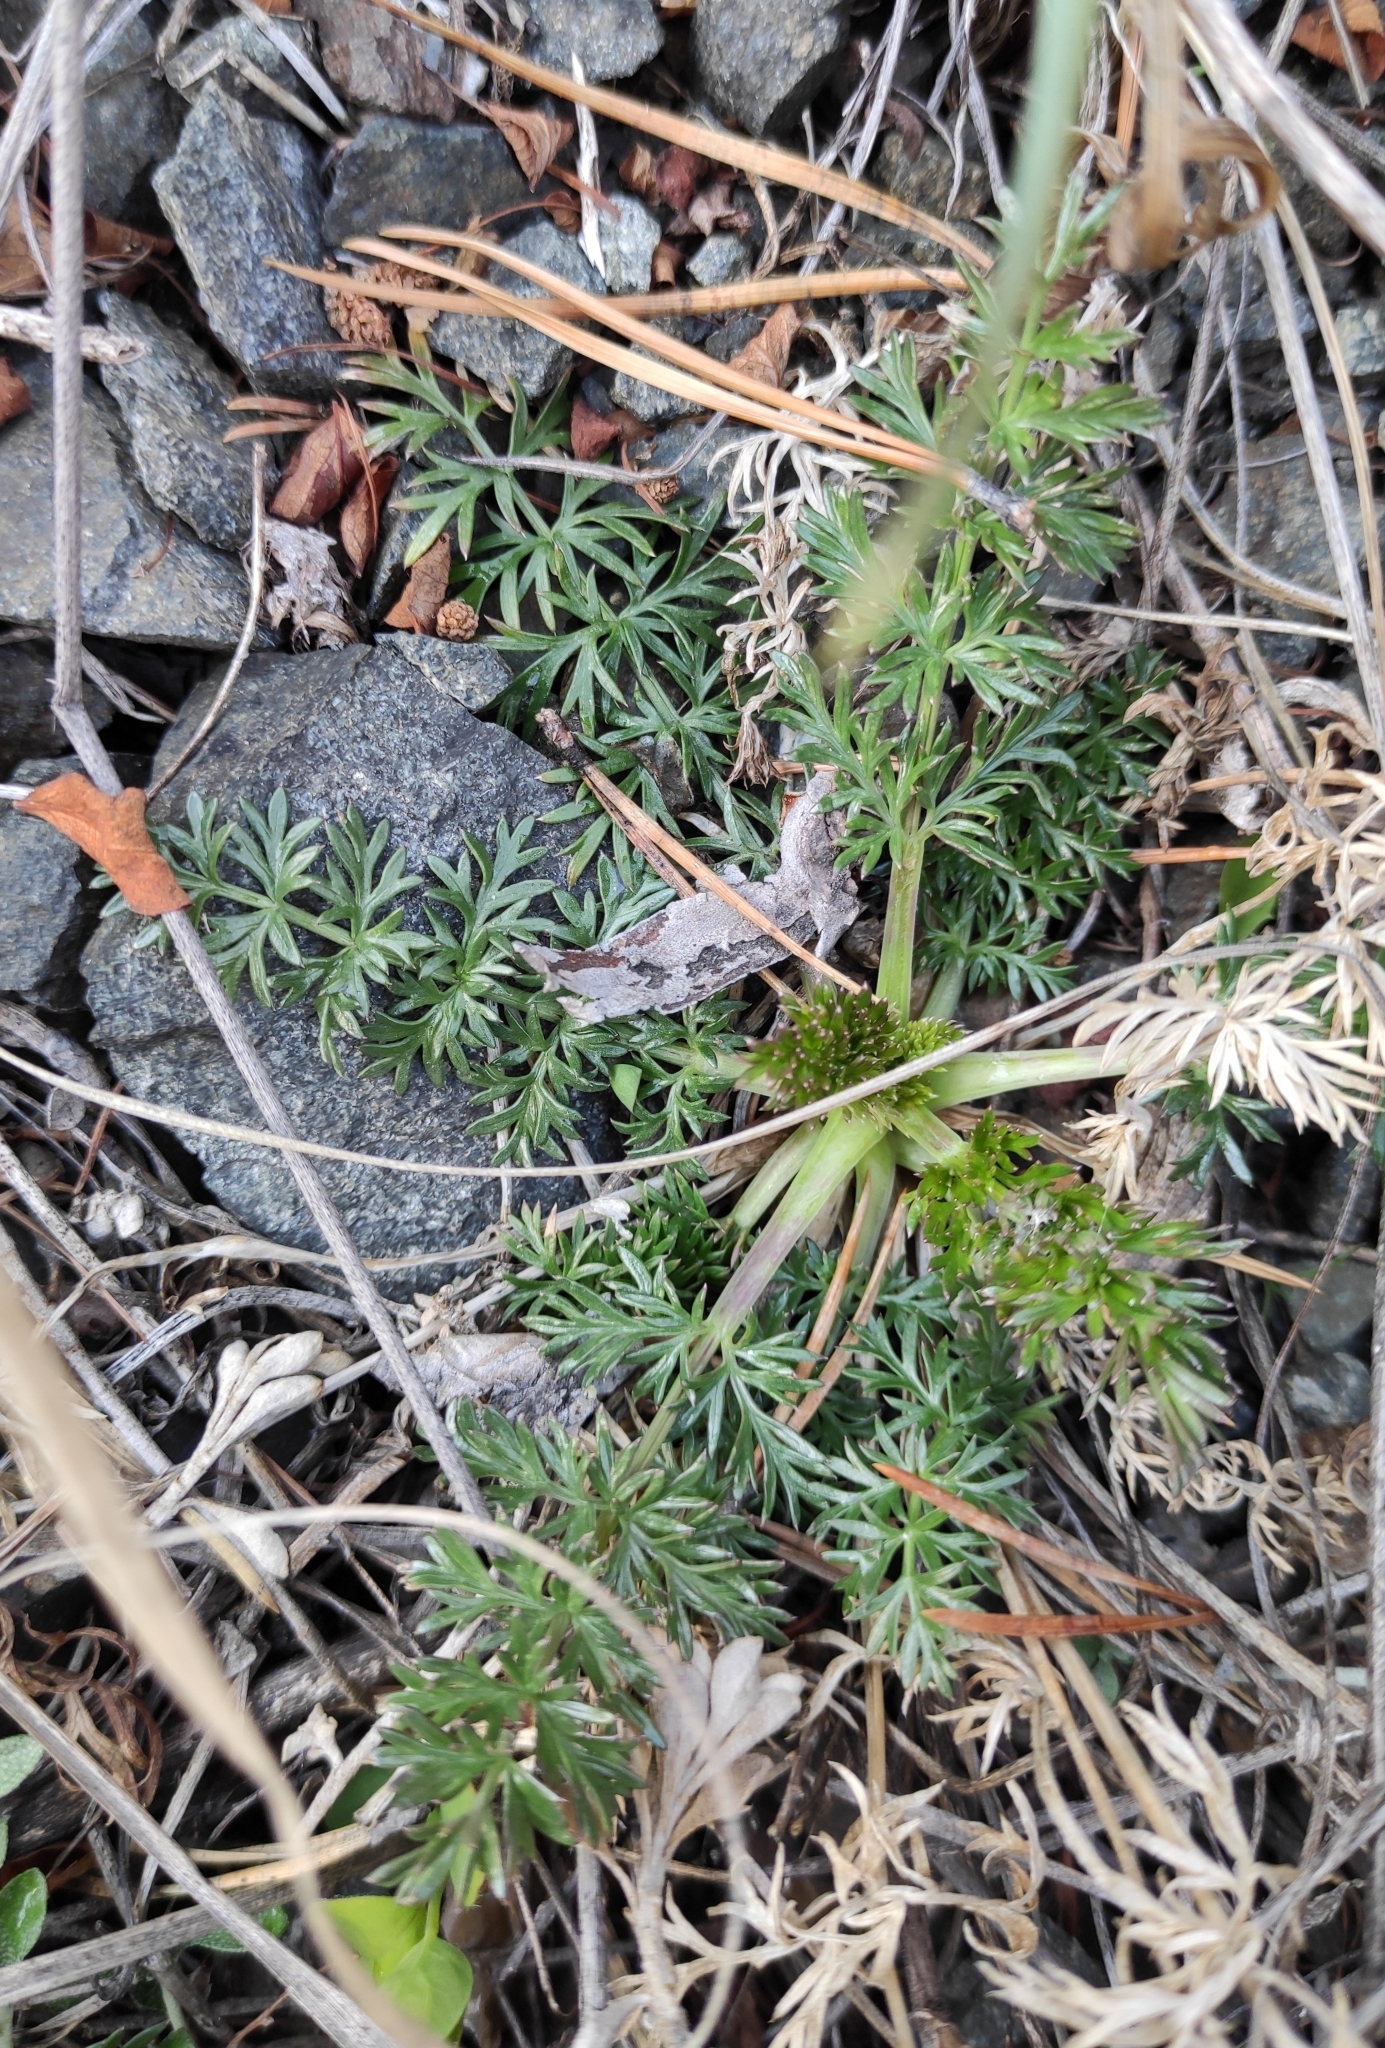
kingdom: Plantae
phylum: Tracheophyta
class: Magnoliopsida
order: Apiales
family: Apiaceae
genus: Kitagawia
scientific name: Kitagawia baicalensis
